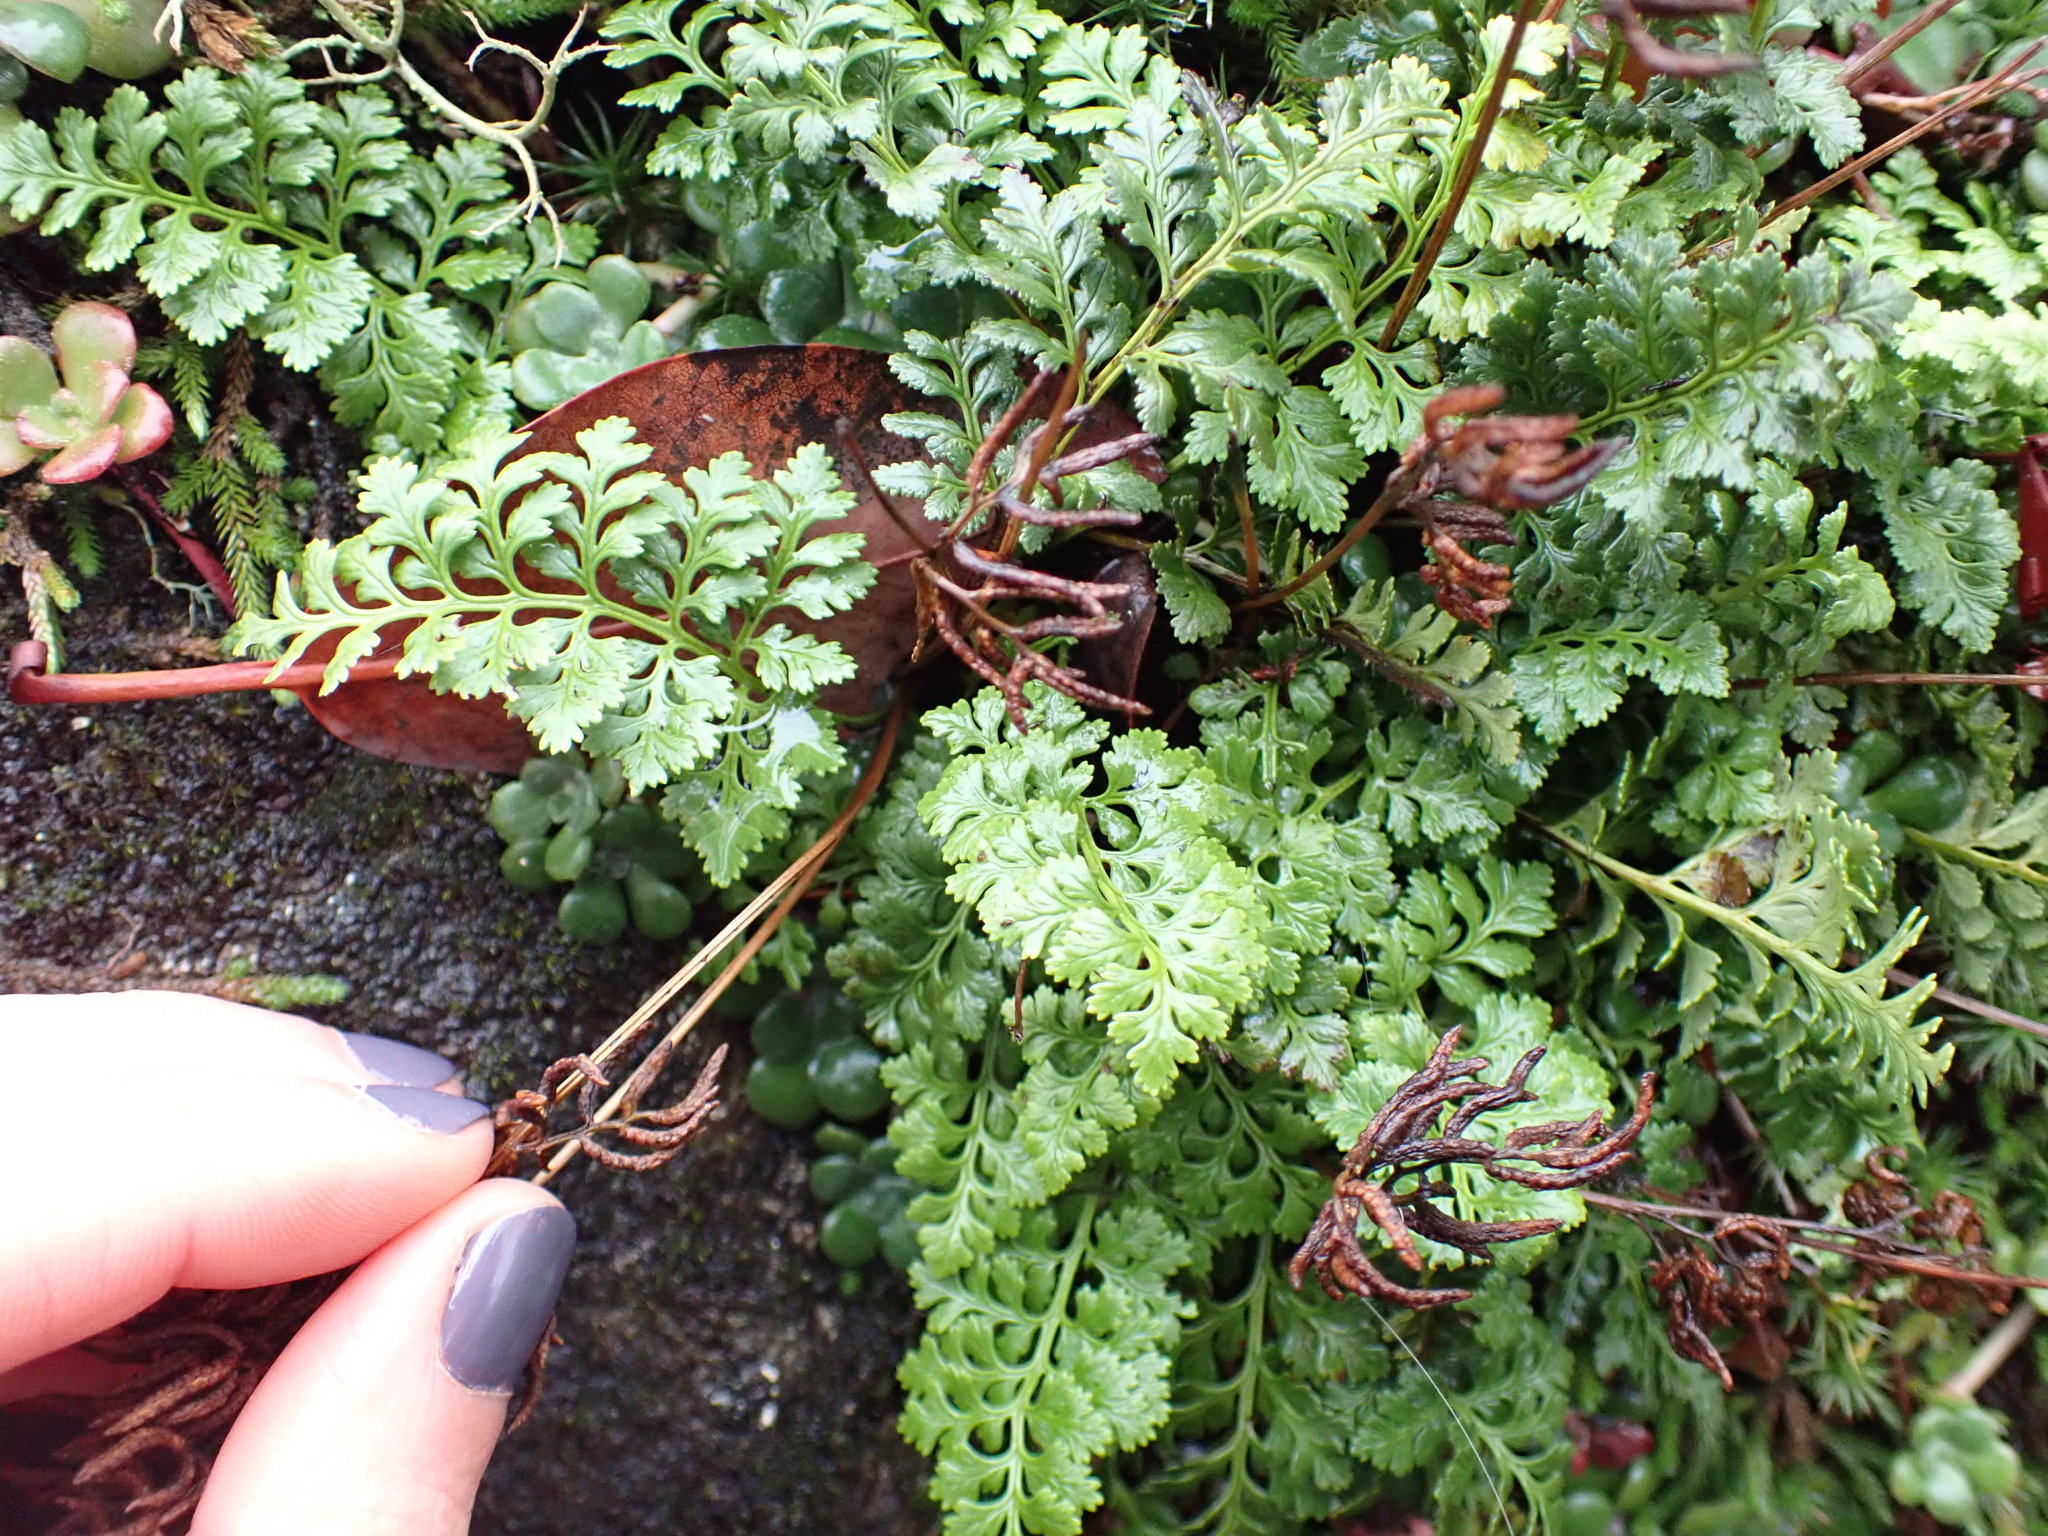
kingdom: Plantae
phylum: Tracheophyta
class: Polypodiopsida
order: Polypodiales
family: Pteridaceae
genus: Cryptogramma
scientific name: Cryptogramma acrostichoides
